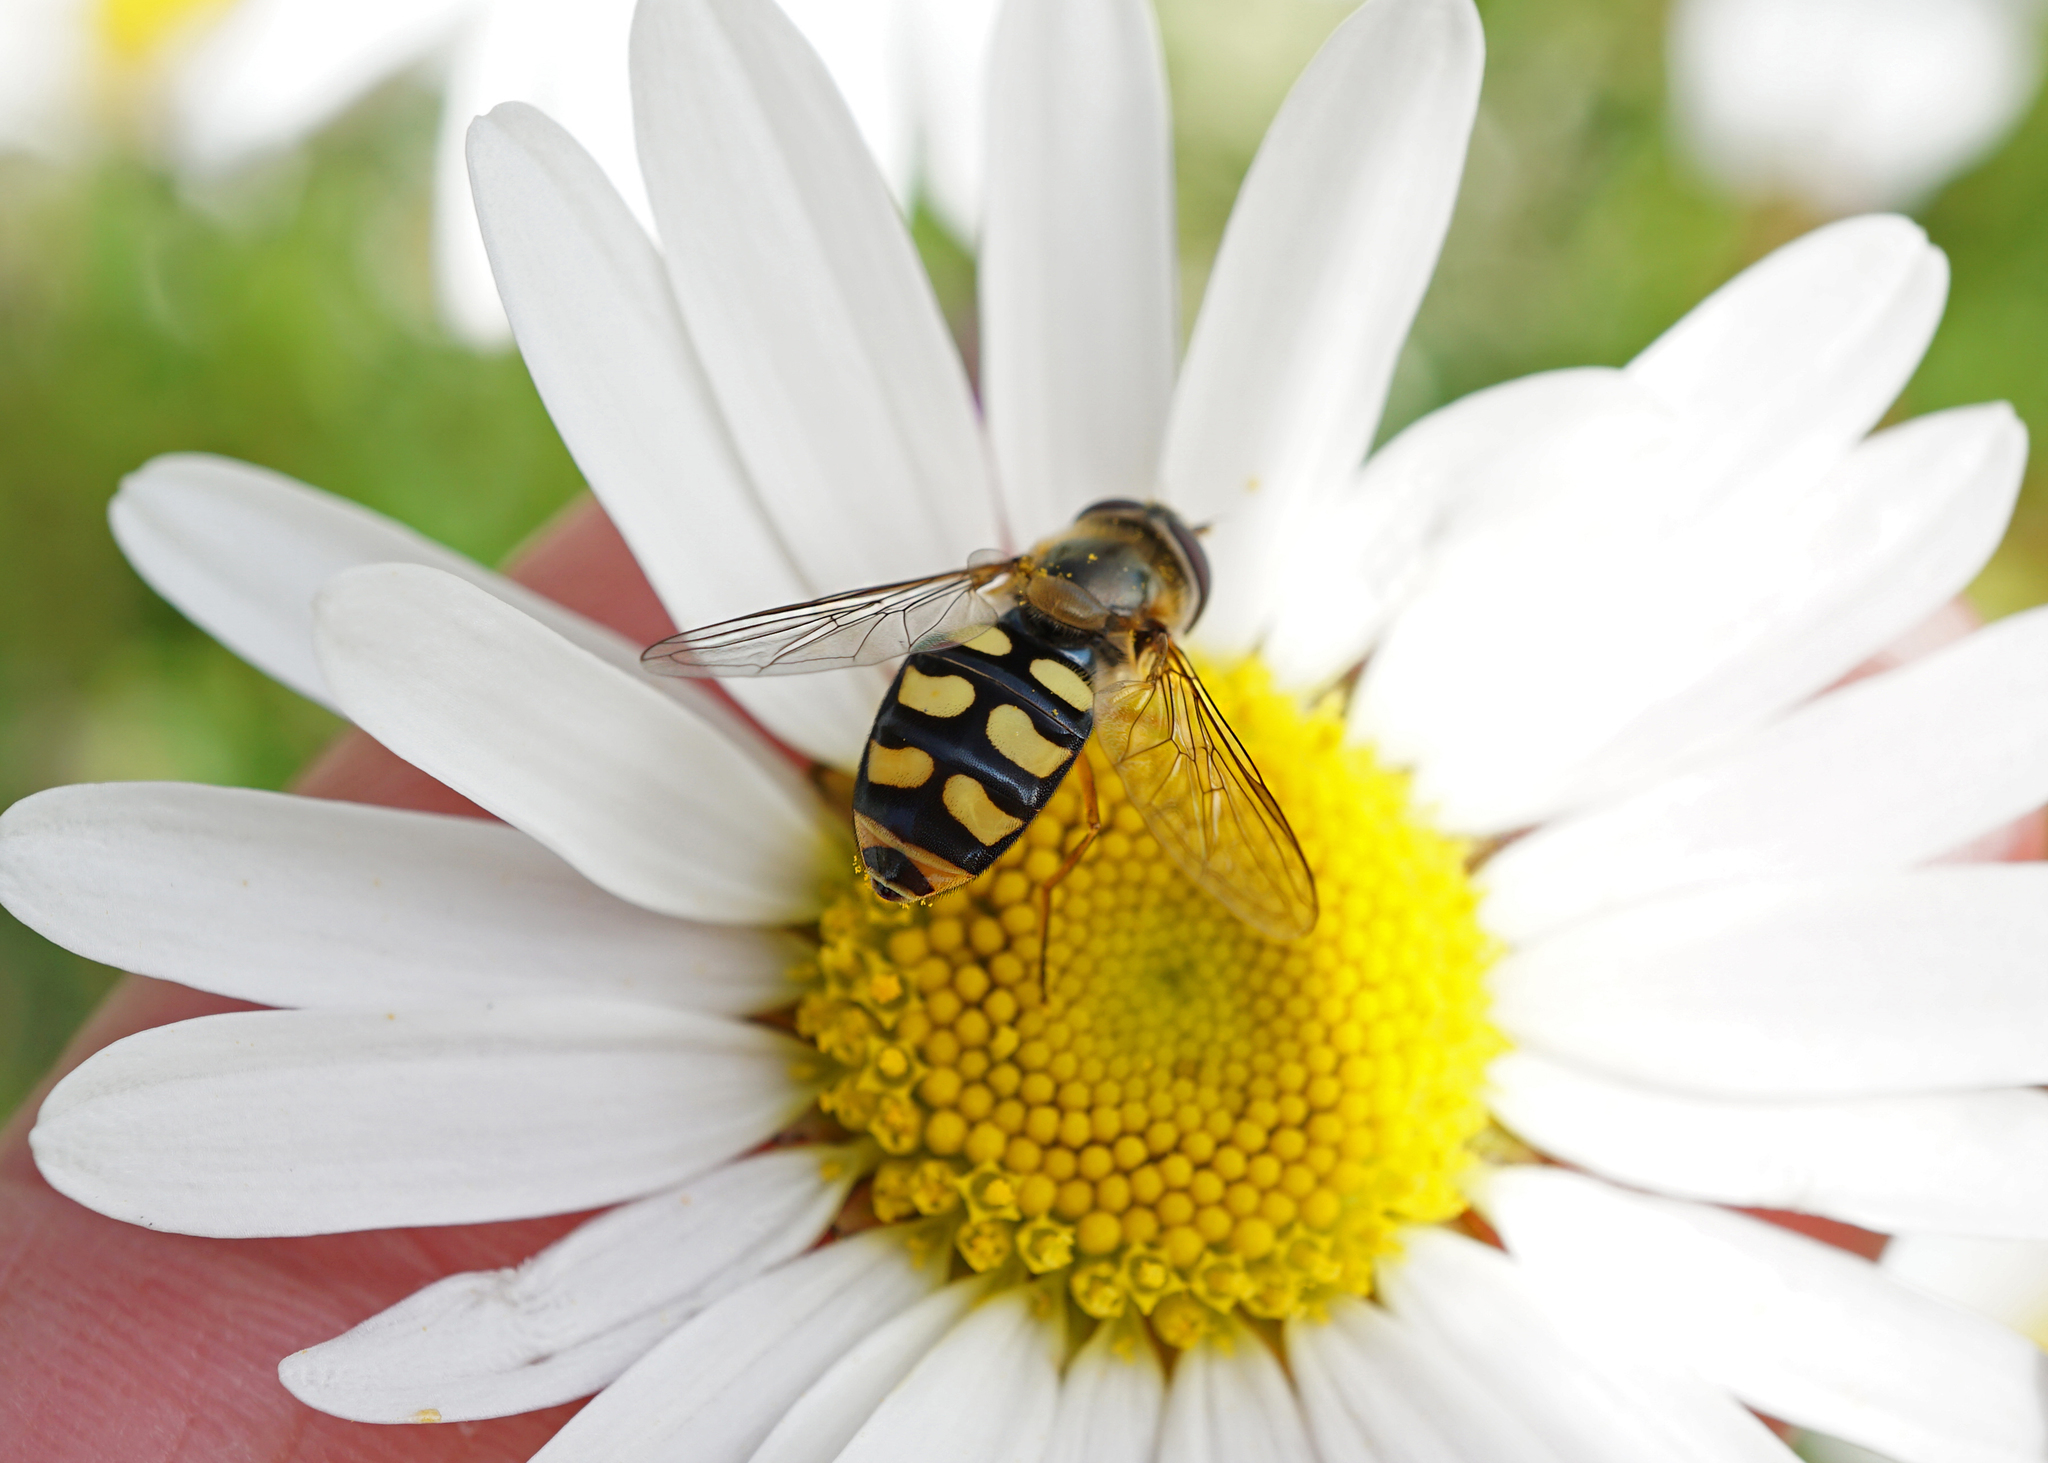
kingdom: Animalia
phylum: Arthropoda
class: Insecta
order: Diptera
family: Syrphidae
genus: Eupeodes
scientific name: Eupeodes
